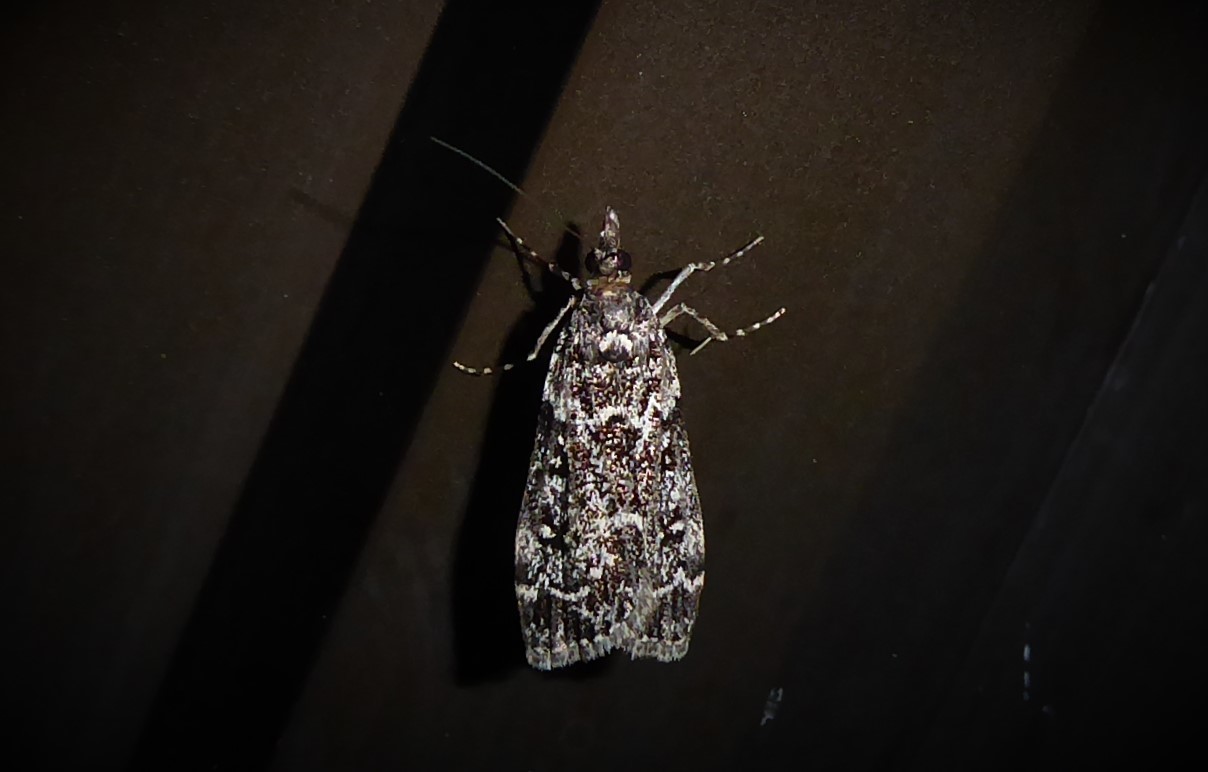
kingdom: Animalia
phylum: Arthropoda
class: Insecta
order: Lepidoptera
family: Crambidae
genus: Eudonia
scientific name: Eudonia philerga
